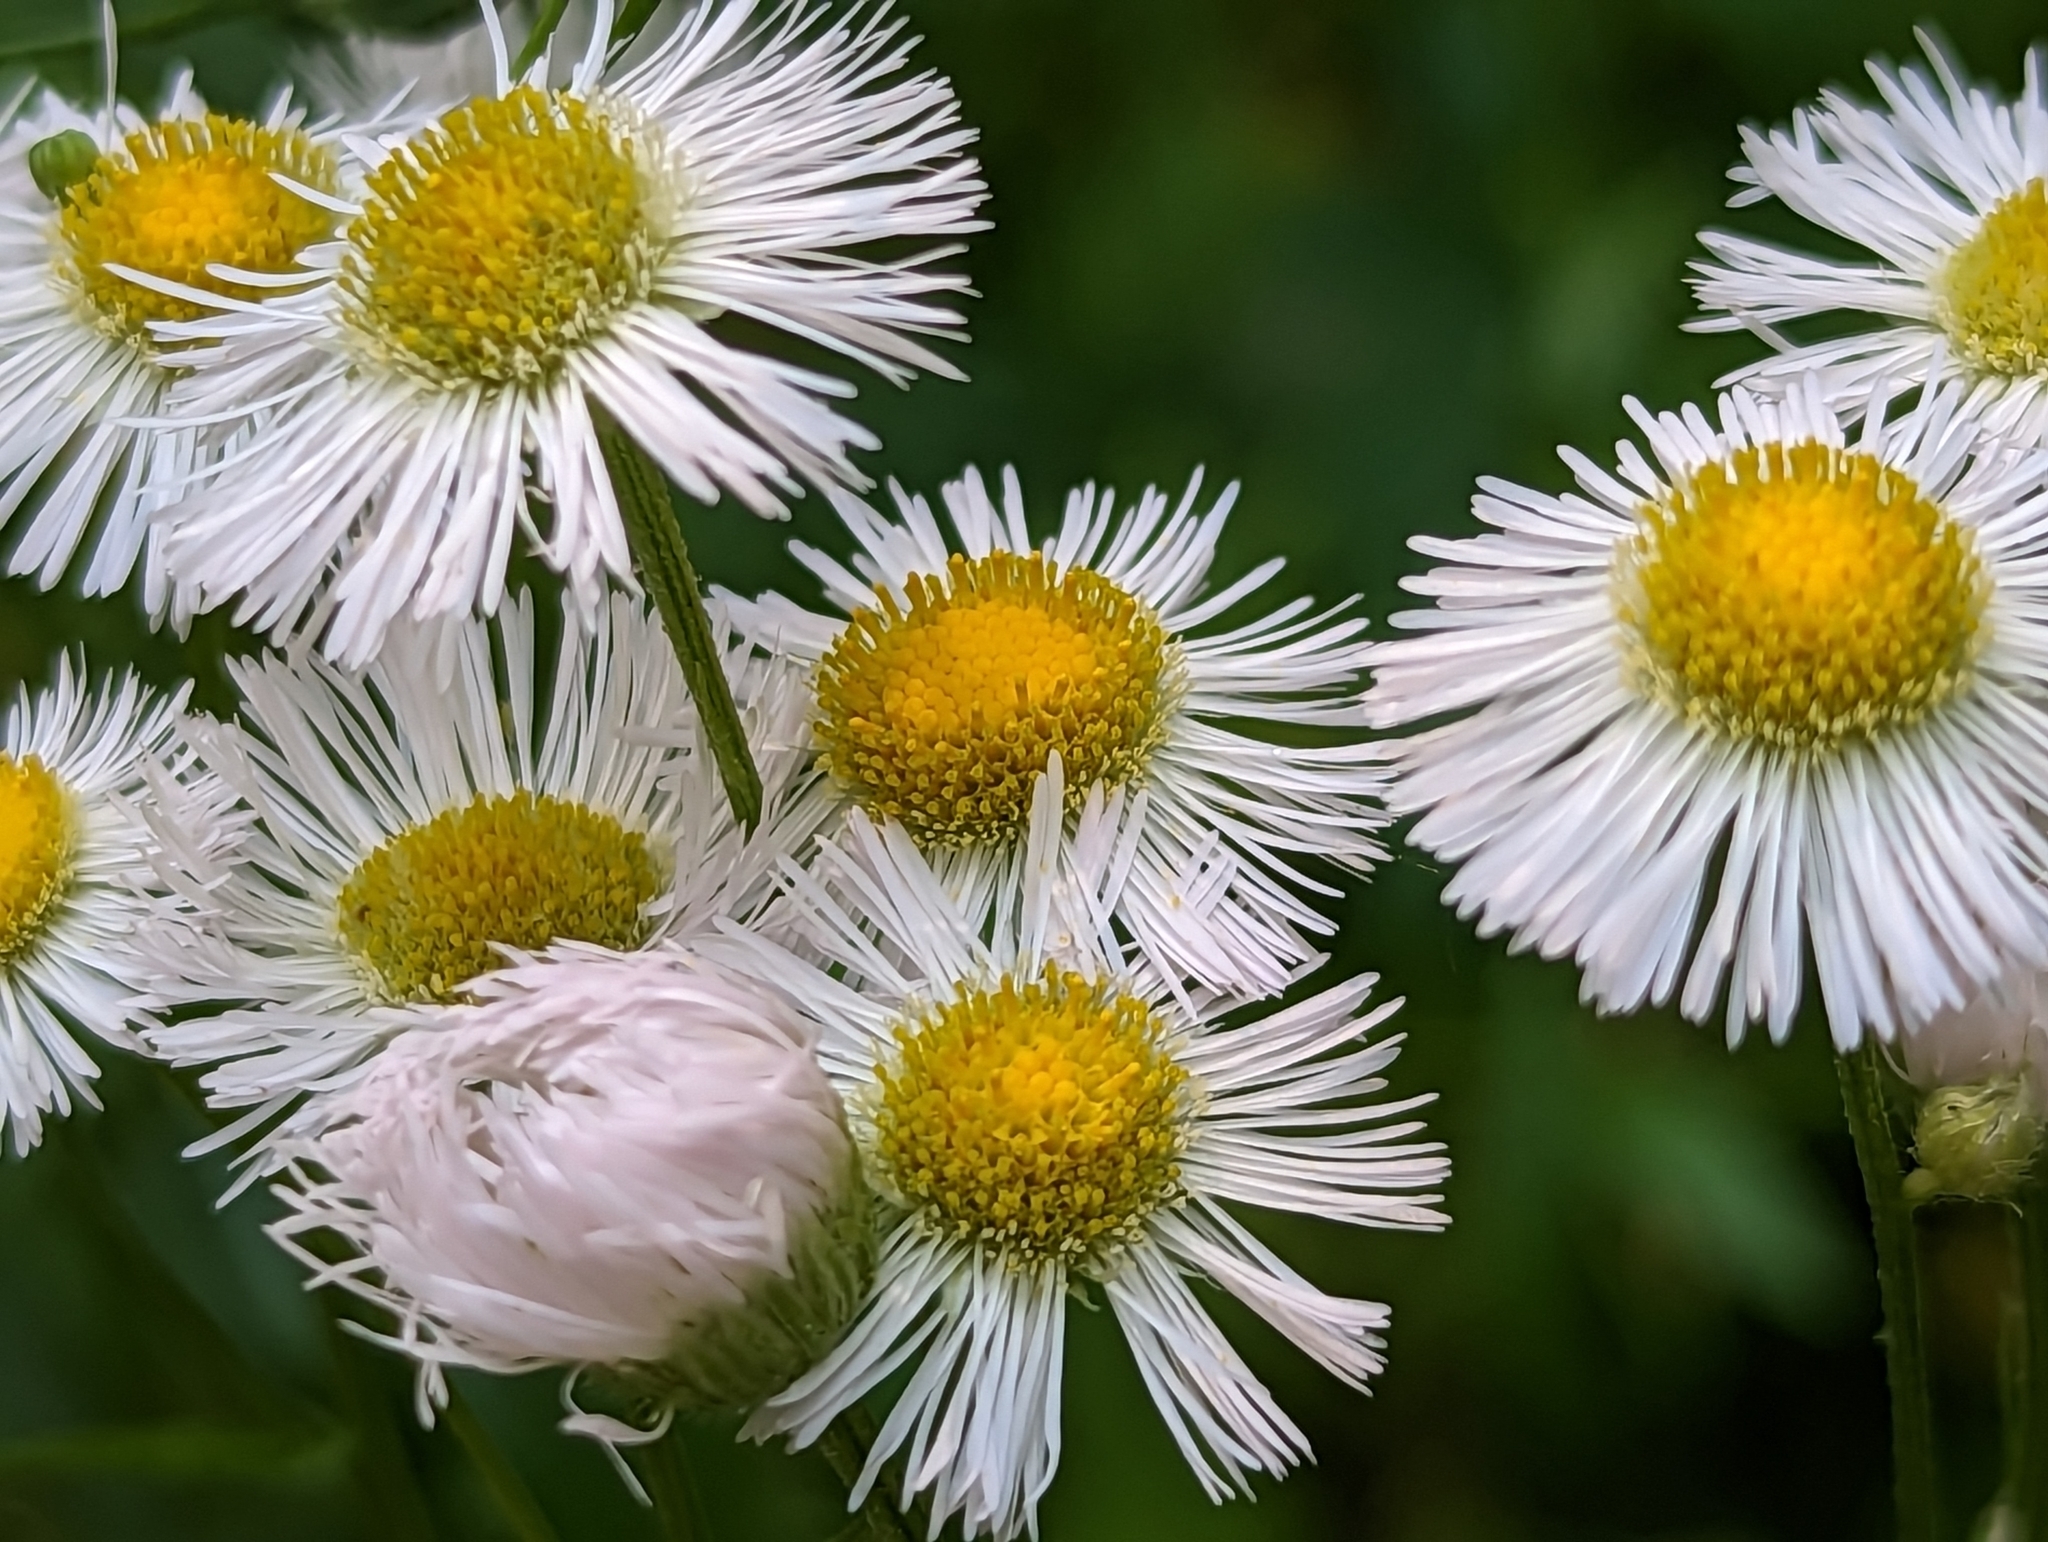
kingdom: Plantae
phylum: Tracheophyta
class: Magnoliopsida
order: Asterales
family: Asteraceae
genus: Erigeron
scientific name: Erigeron philadelphicus
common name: Robin's-plantain
